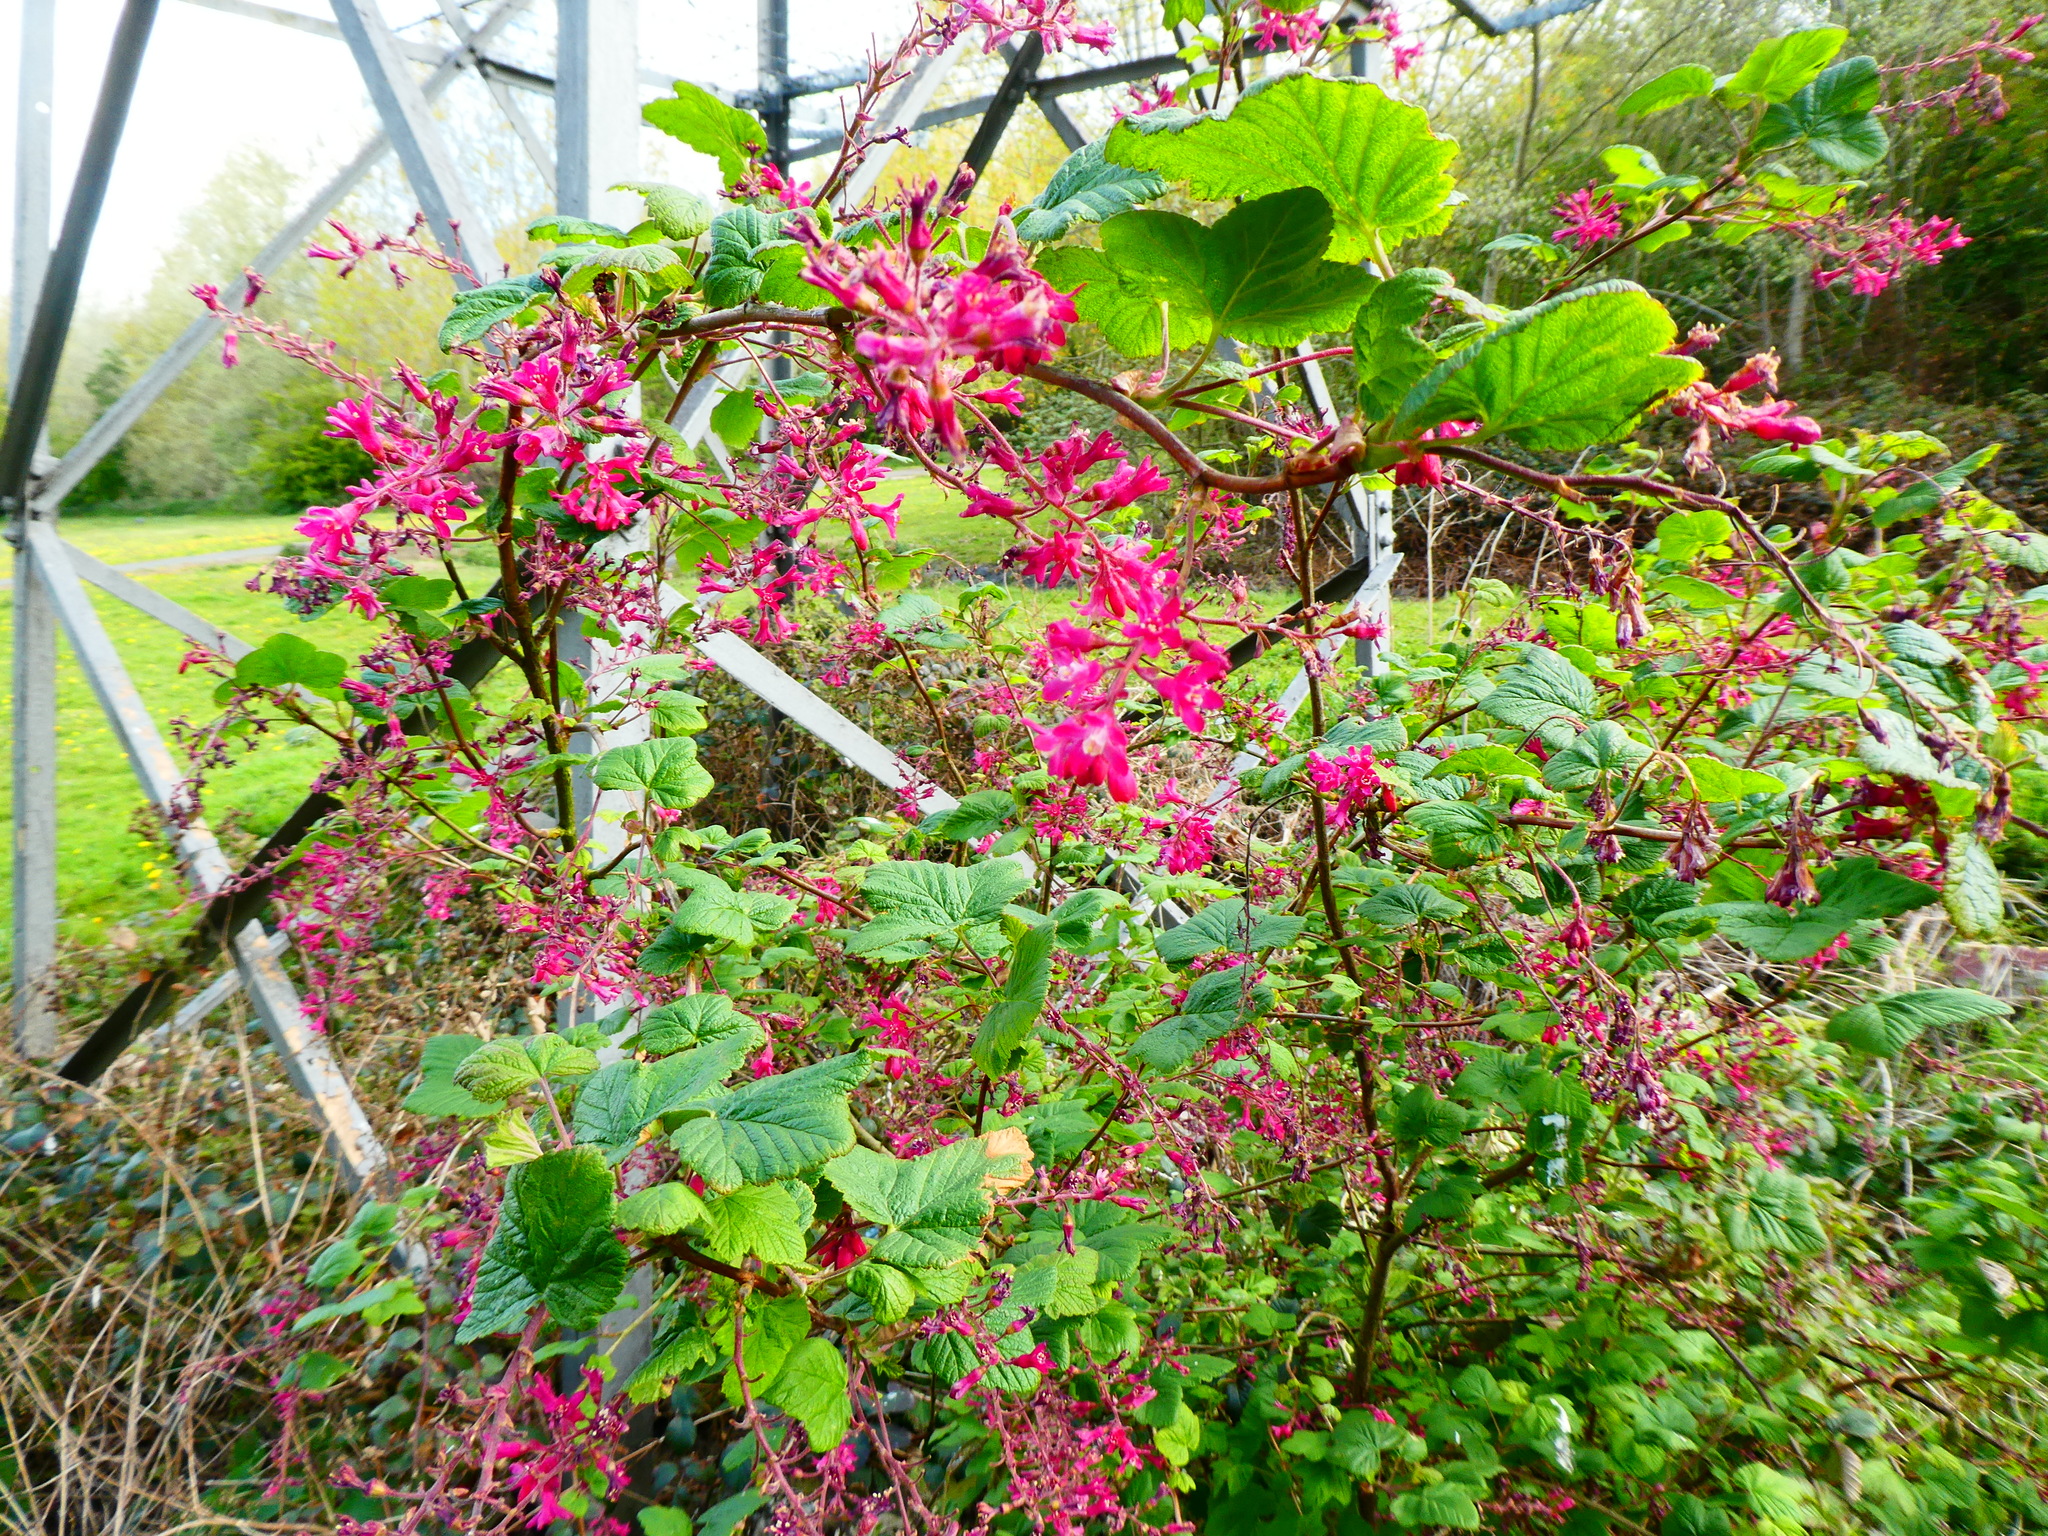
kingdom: Plantae
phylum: Tracheophyta
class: Magnoliopsida
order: Saxifragales
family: Grossulariaceae
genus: Ribes
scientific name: Ribes sanguineum
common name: Flowering currant
